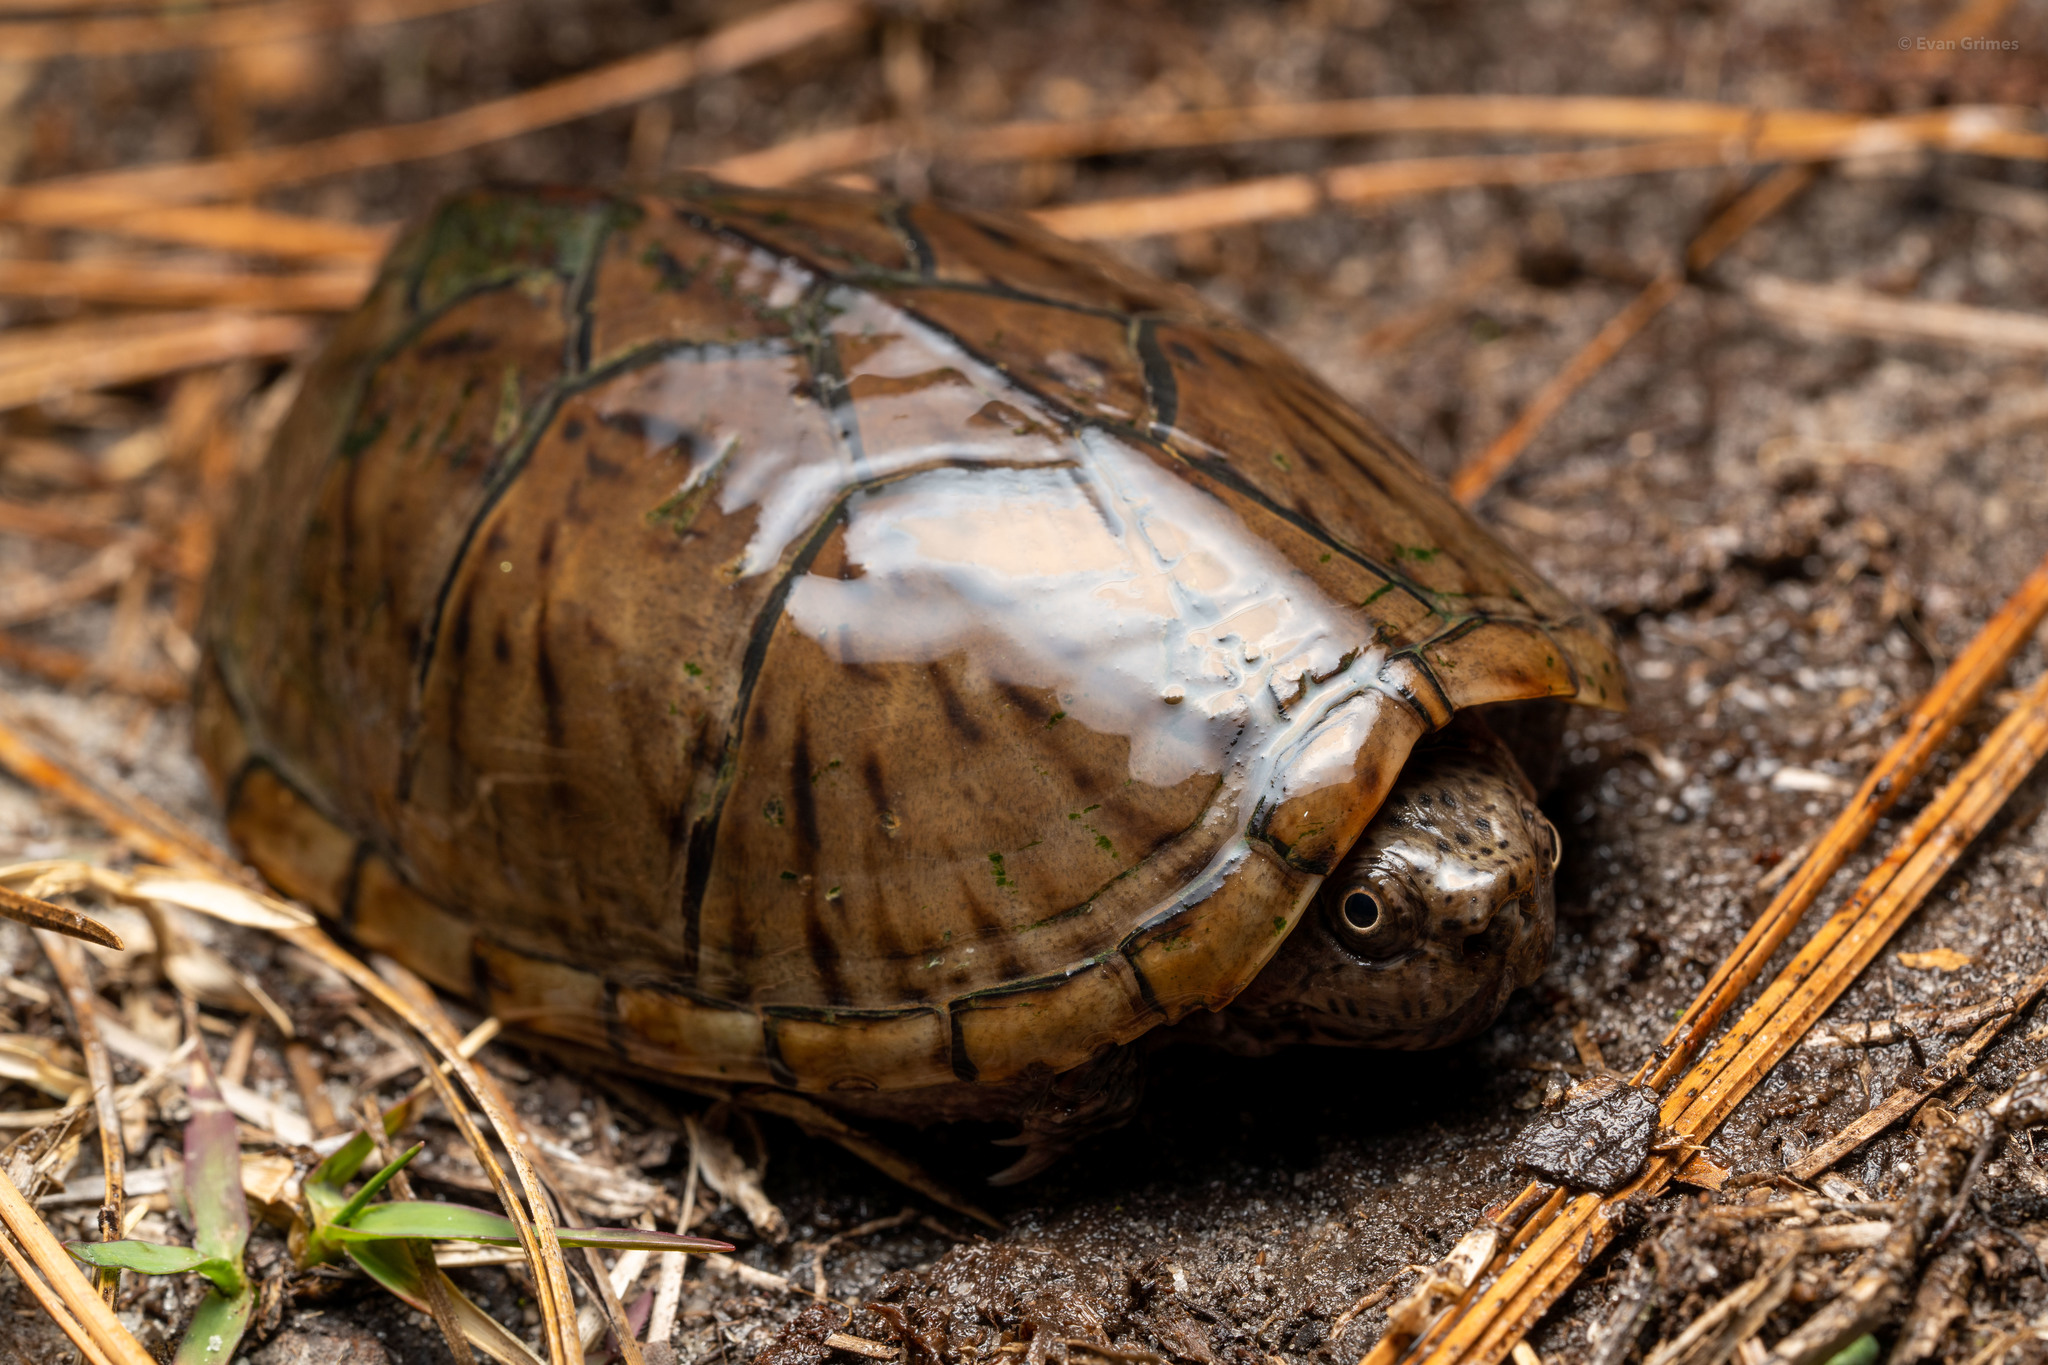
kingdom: Animalia
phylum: Chordata
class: Testudines
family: Kinosternidae
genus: Sternotherus
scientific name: Sternotherus intermedius
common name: Intermediate musk turtle
